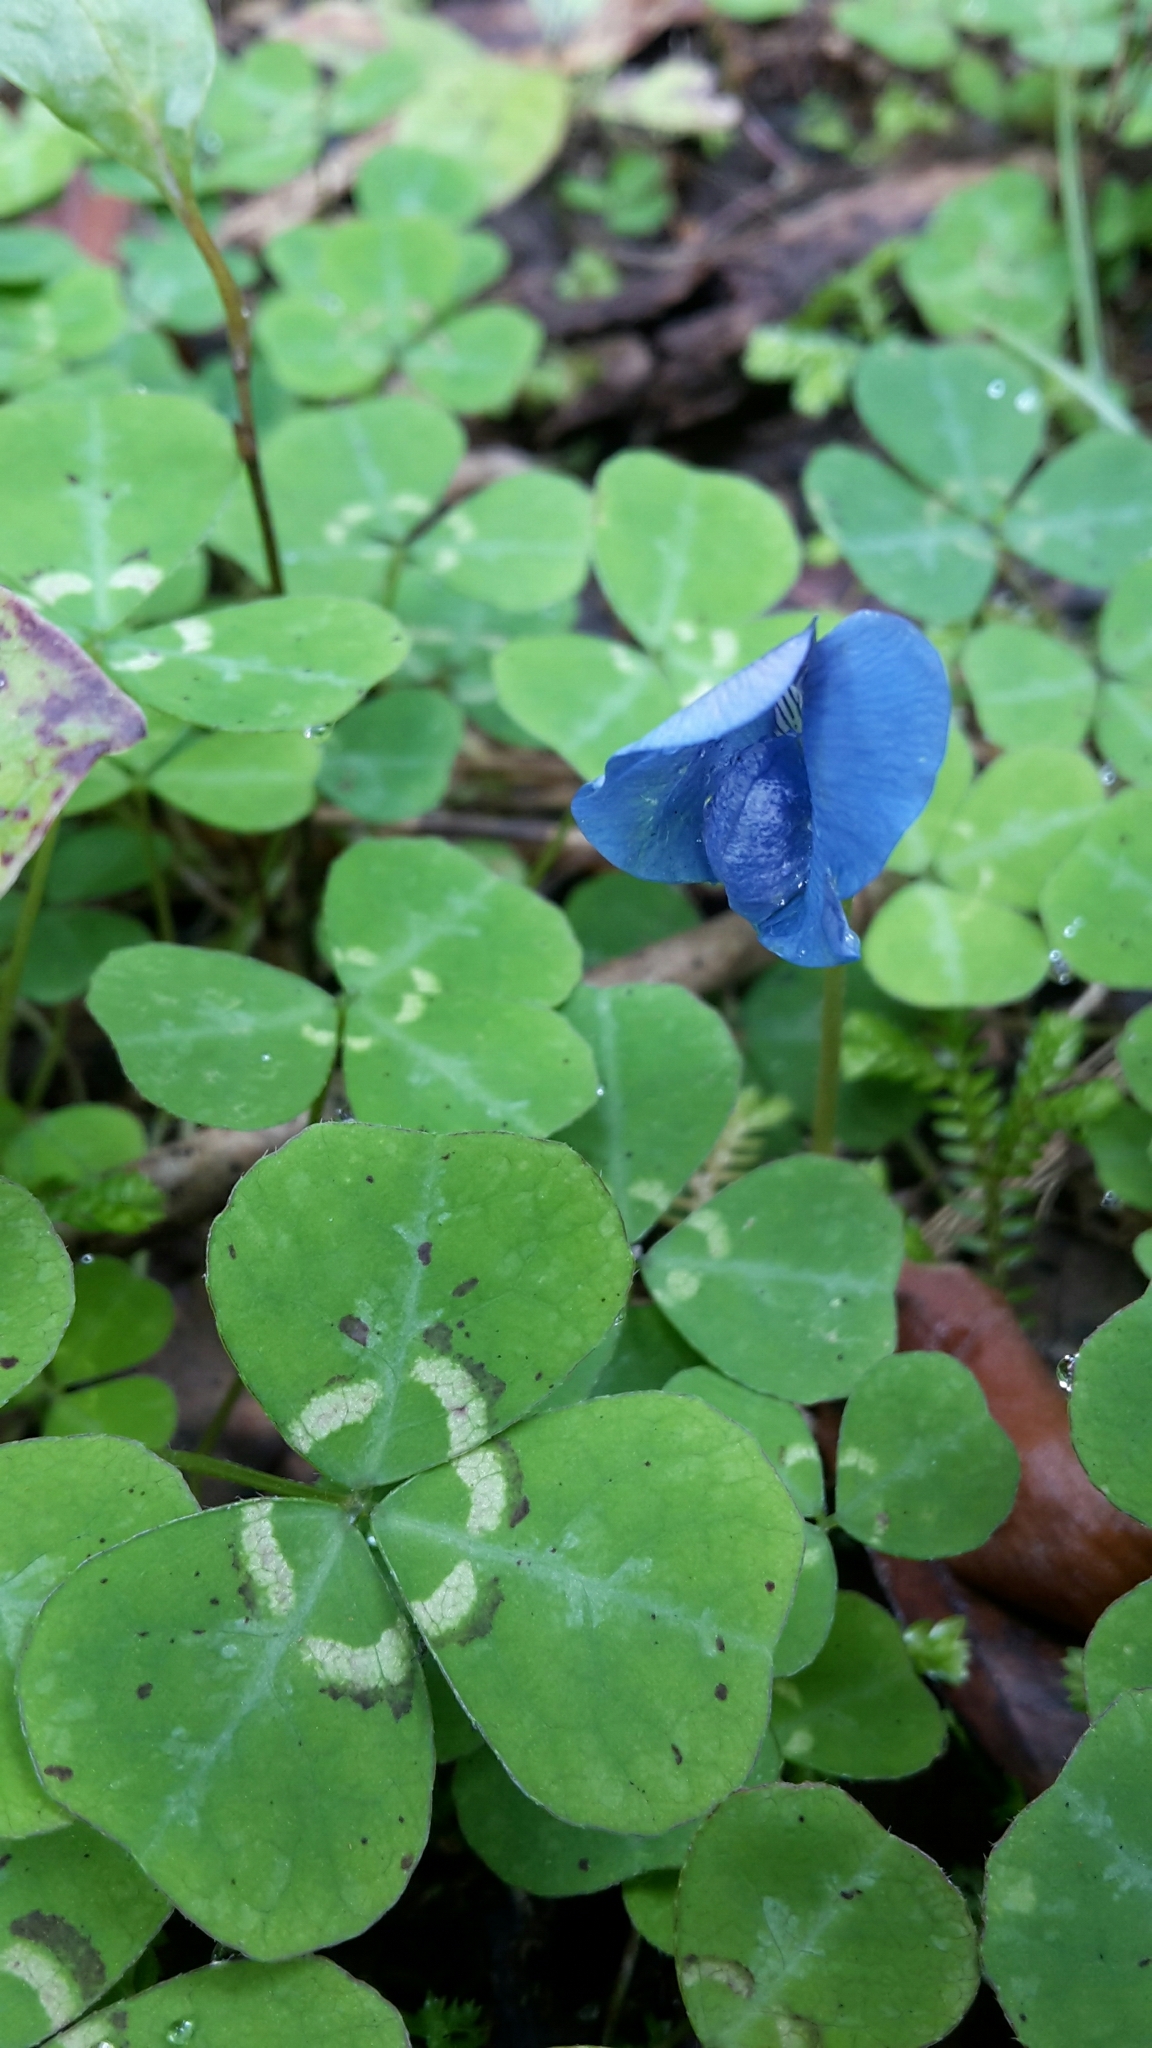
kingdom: Plantae
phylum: Tracheophyta
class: Magnoliopsida
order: Fabales
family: Fabaceae
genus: Parochetus
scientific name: Parochetus communis
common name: Blue oxalis
